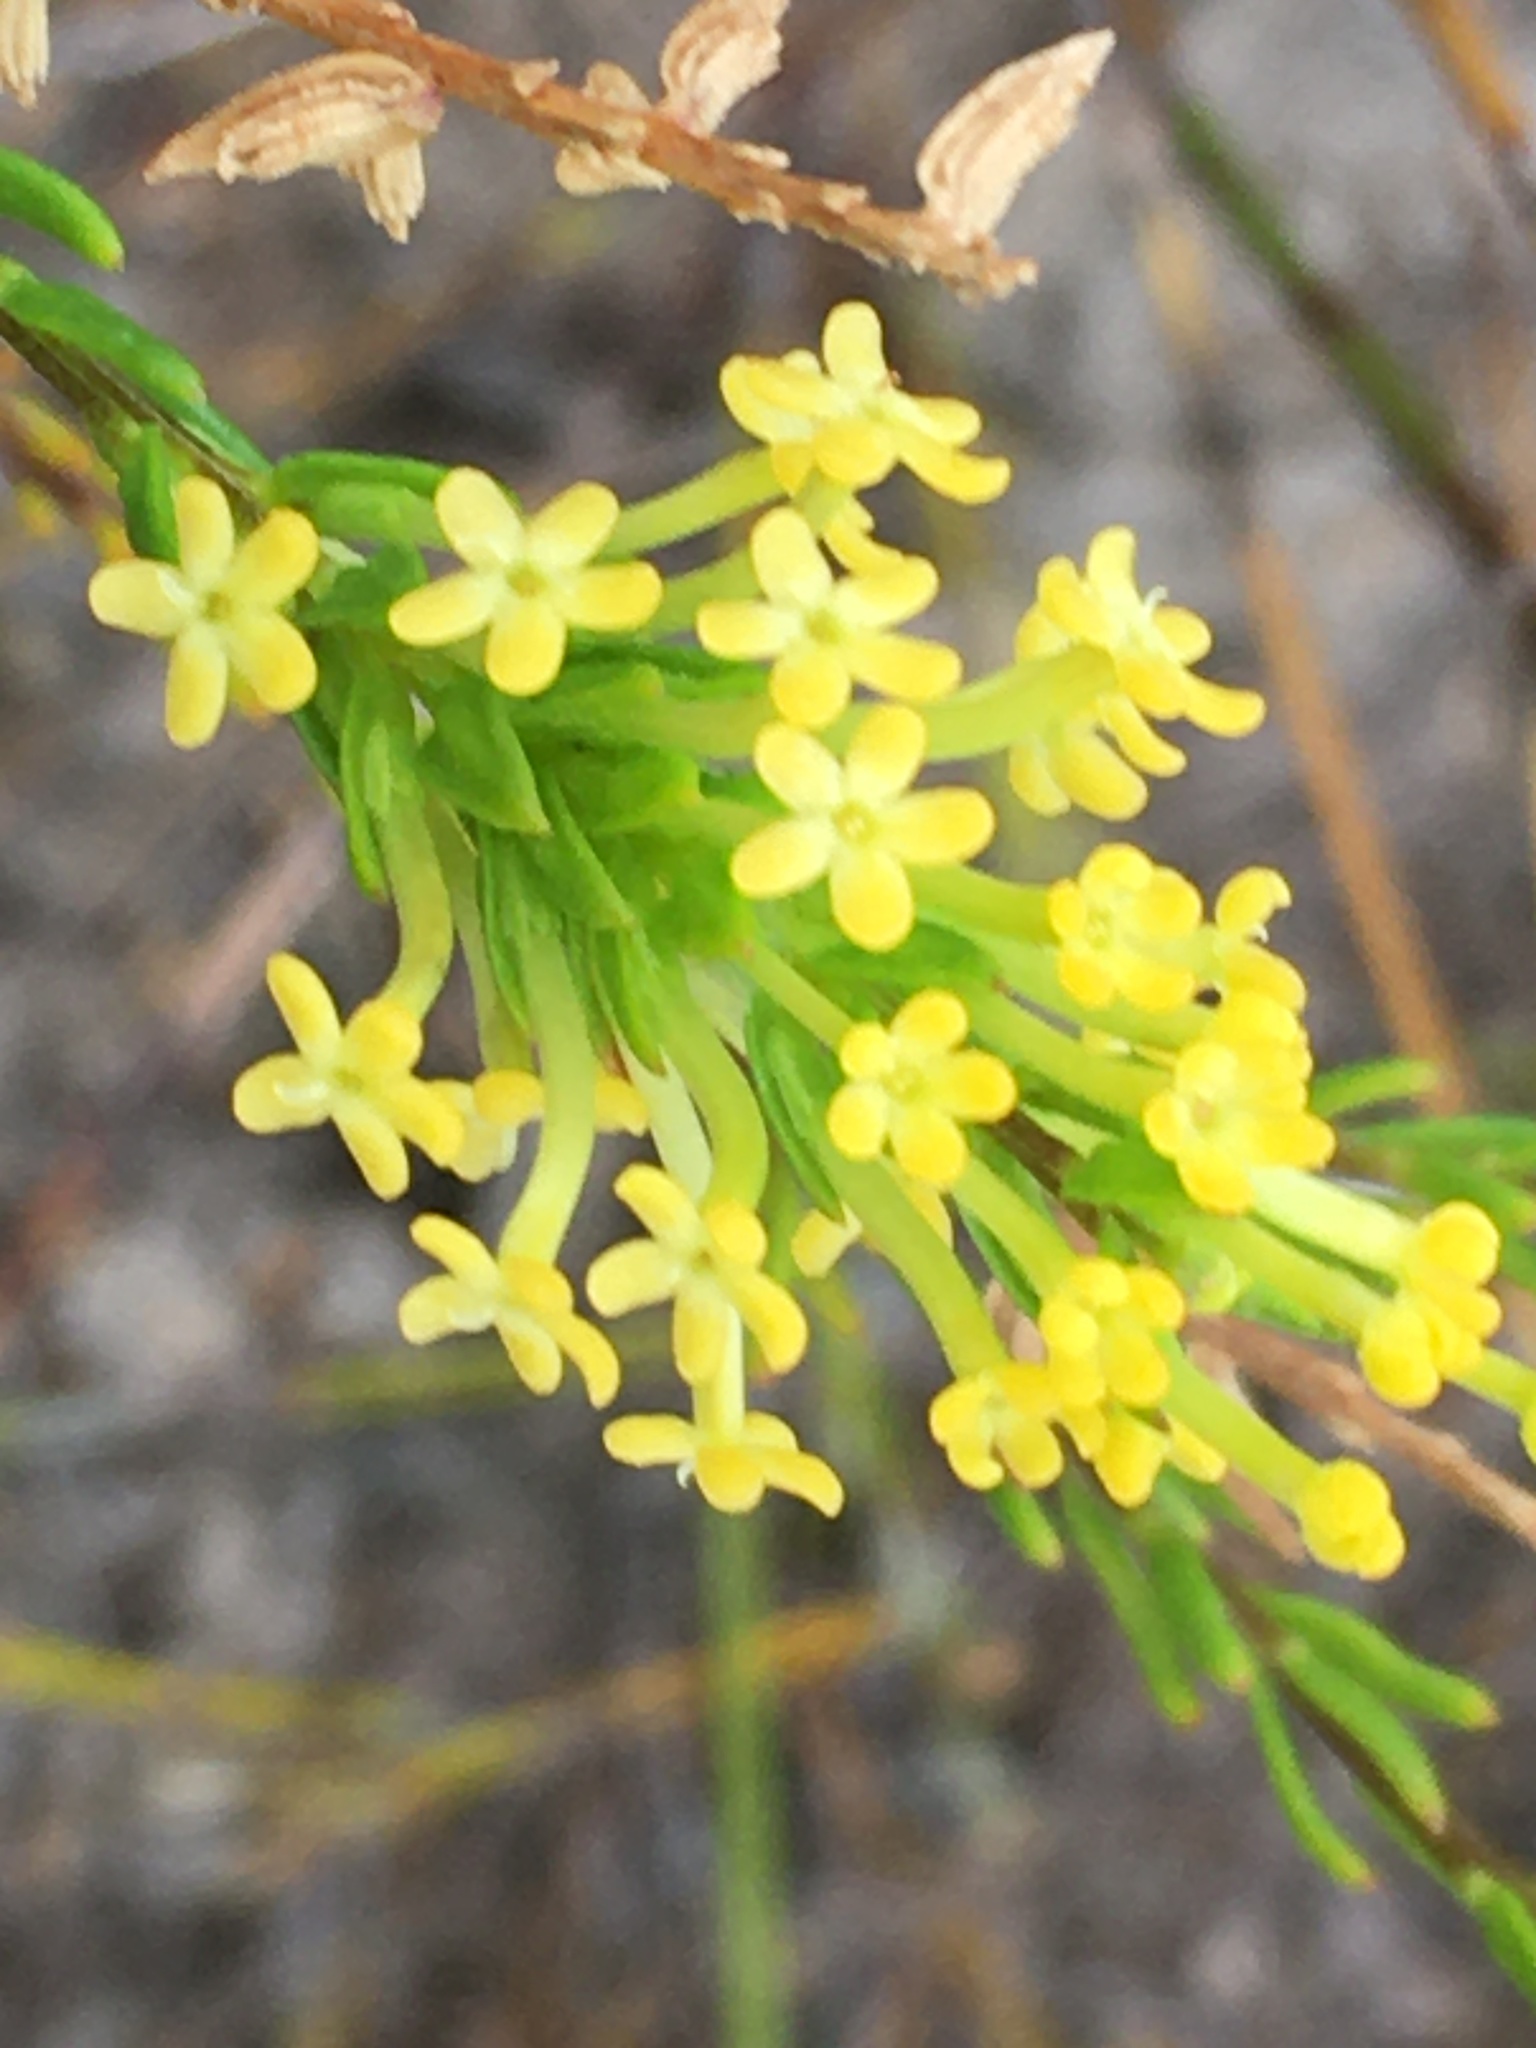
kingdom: Plantae
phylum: Tracheophyta
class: Magnoliopsida
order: Lamiales
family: Scrophulariaceae
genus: Microdon
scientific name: Microdon dubius
